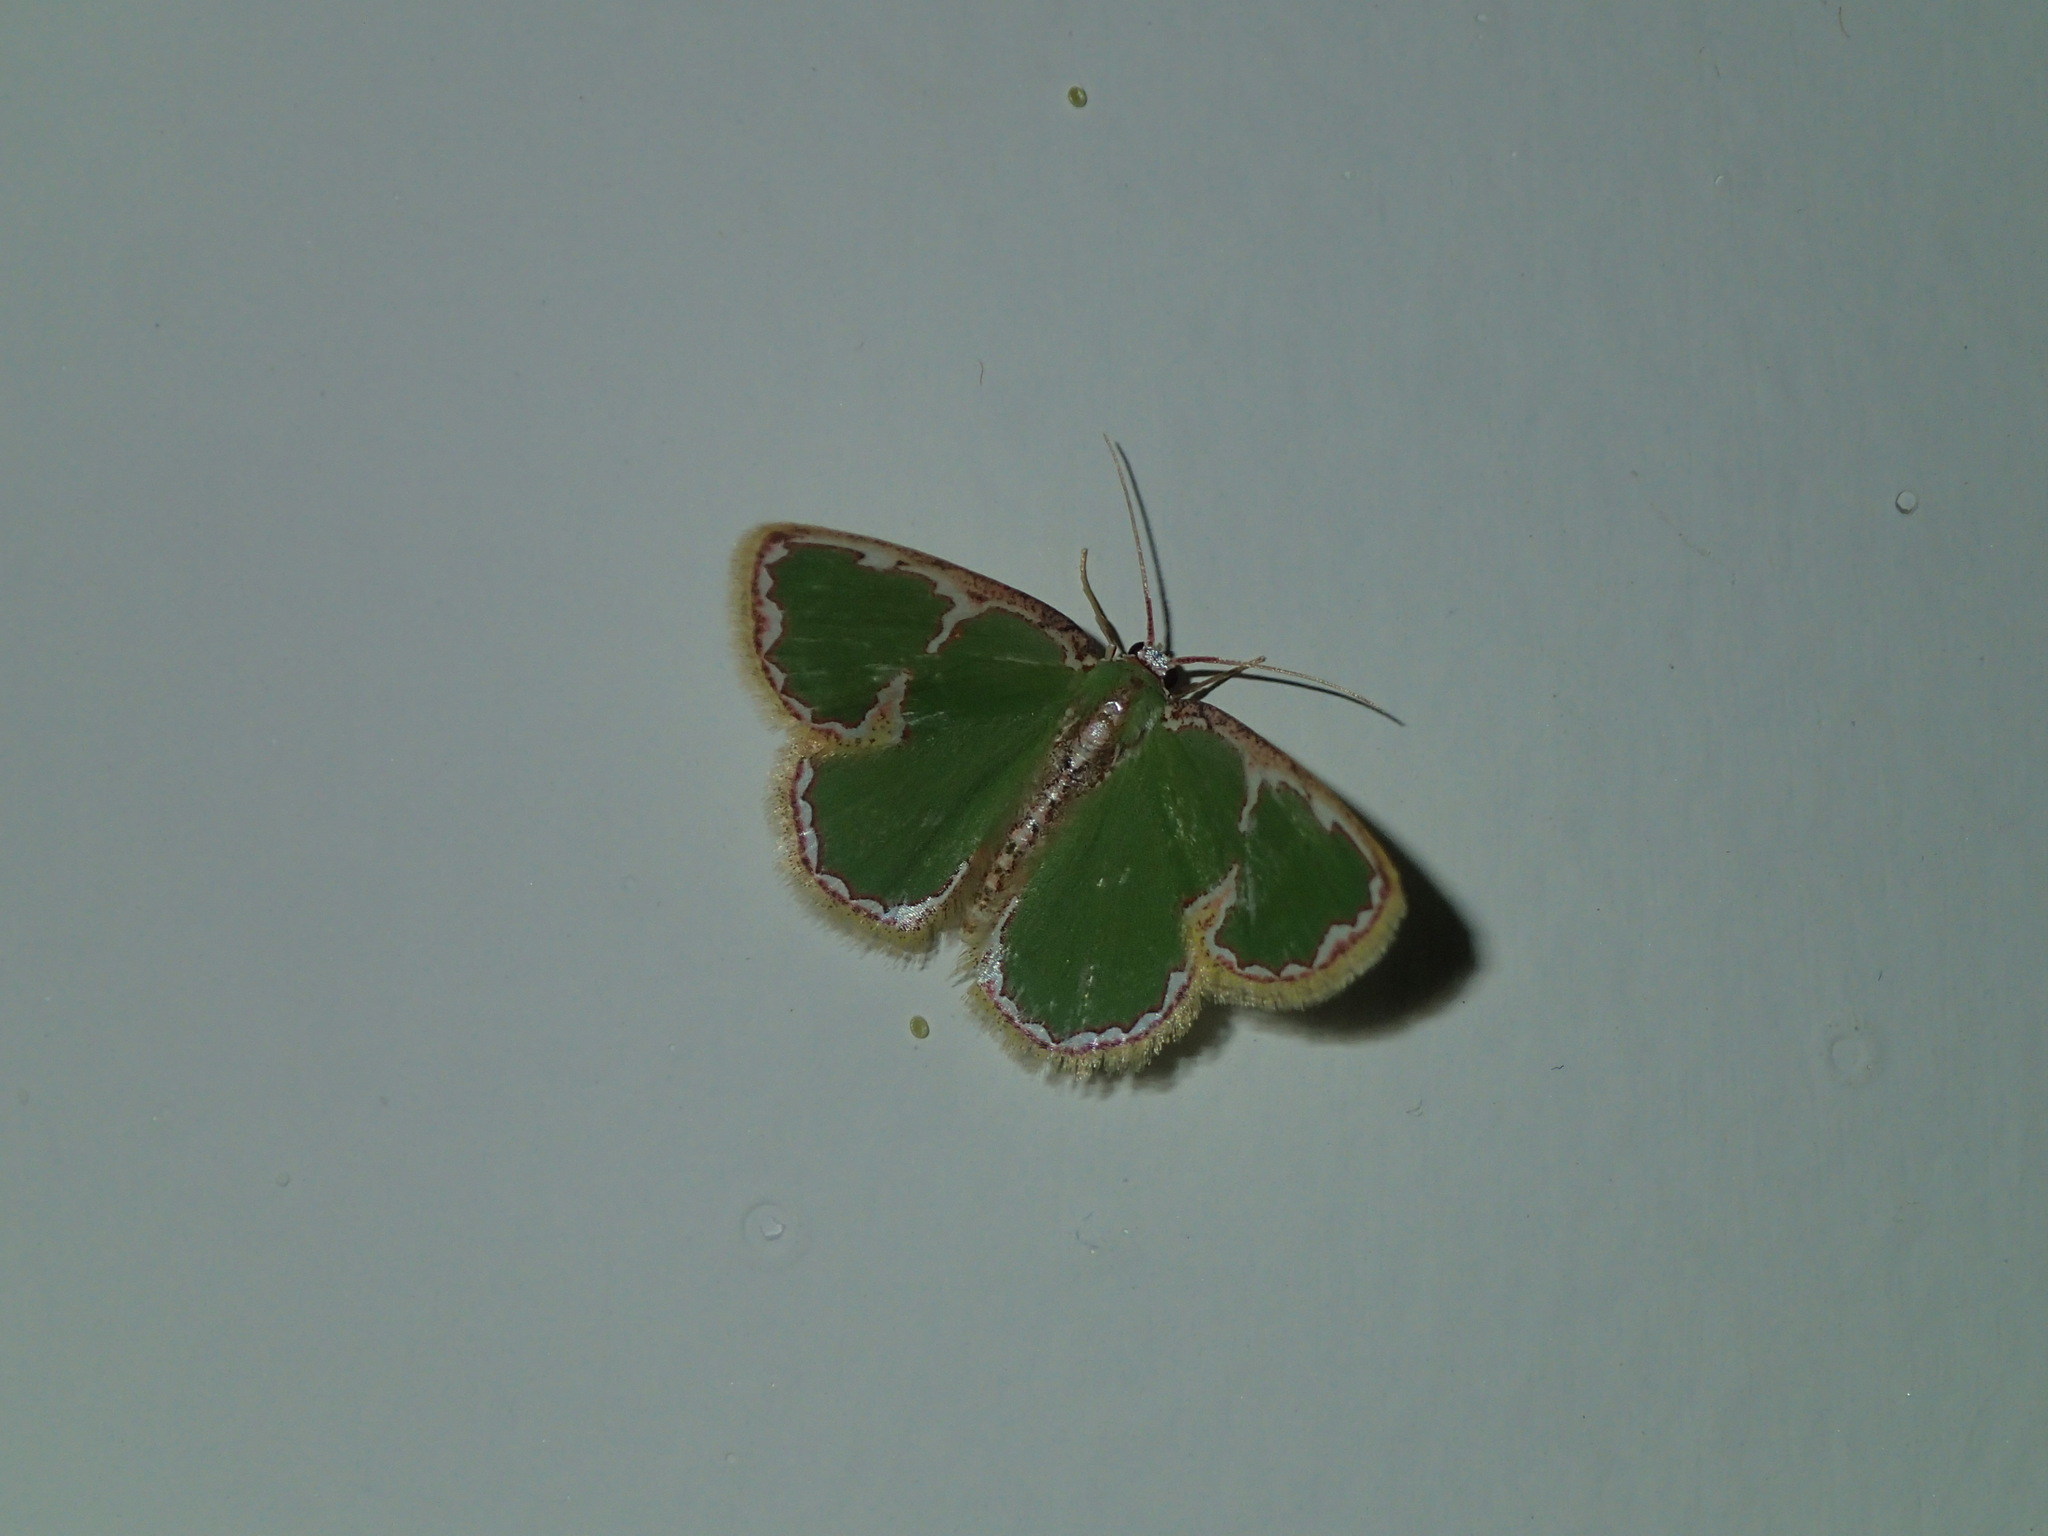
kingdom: Animalia
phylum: Arthropoda
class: Insecta
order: Lepidoptera
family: Geometridae
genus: Comostola
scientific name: Comostola chlorargyra
